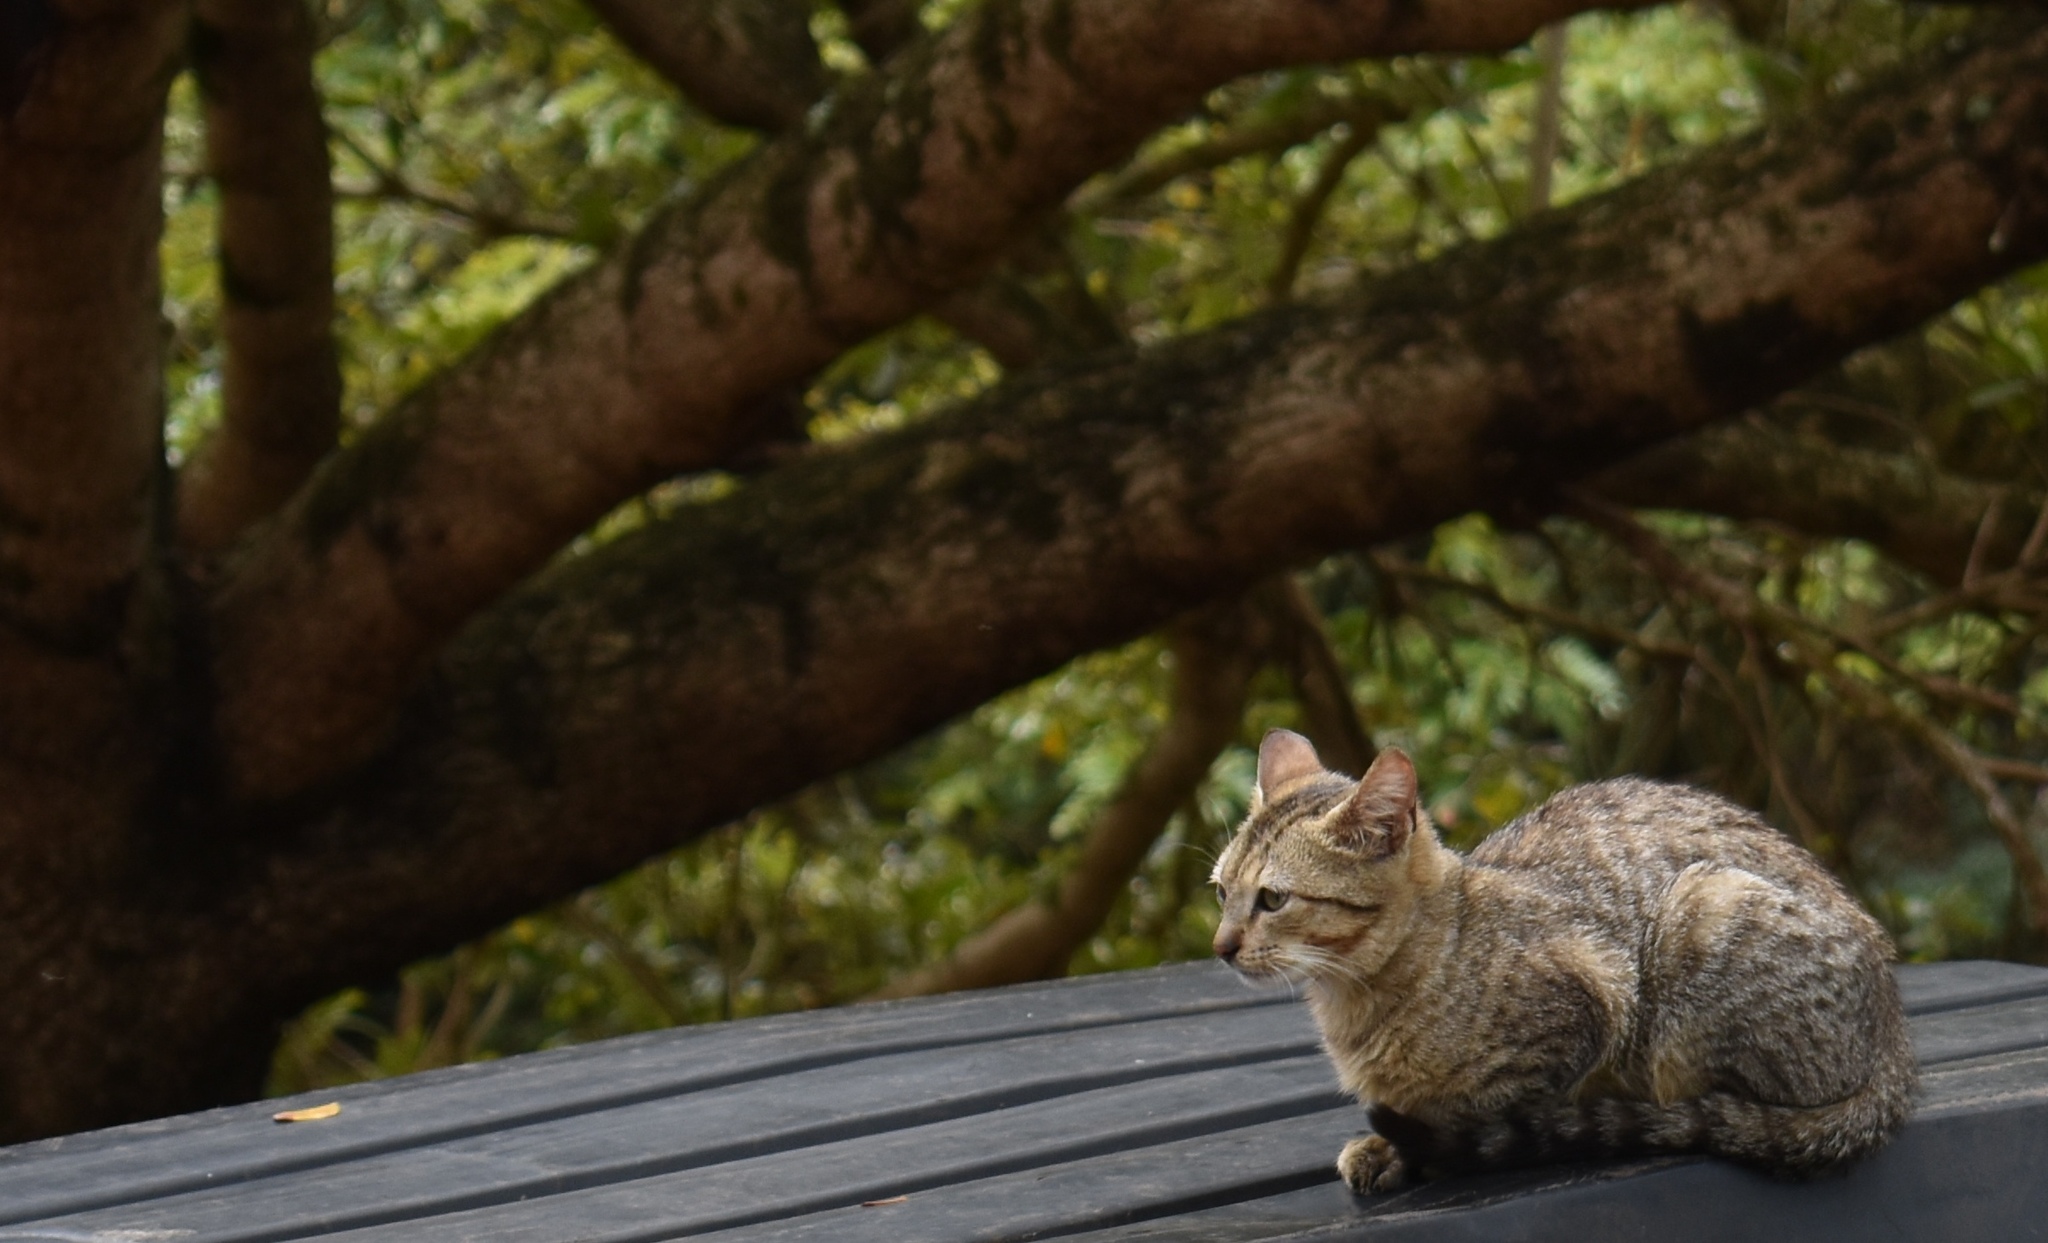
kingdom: Animalia
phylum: Chordata
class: Mammalia
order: Carnivora
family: Felidae
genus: Felis
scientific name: Felis catus
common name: Domestic cat
